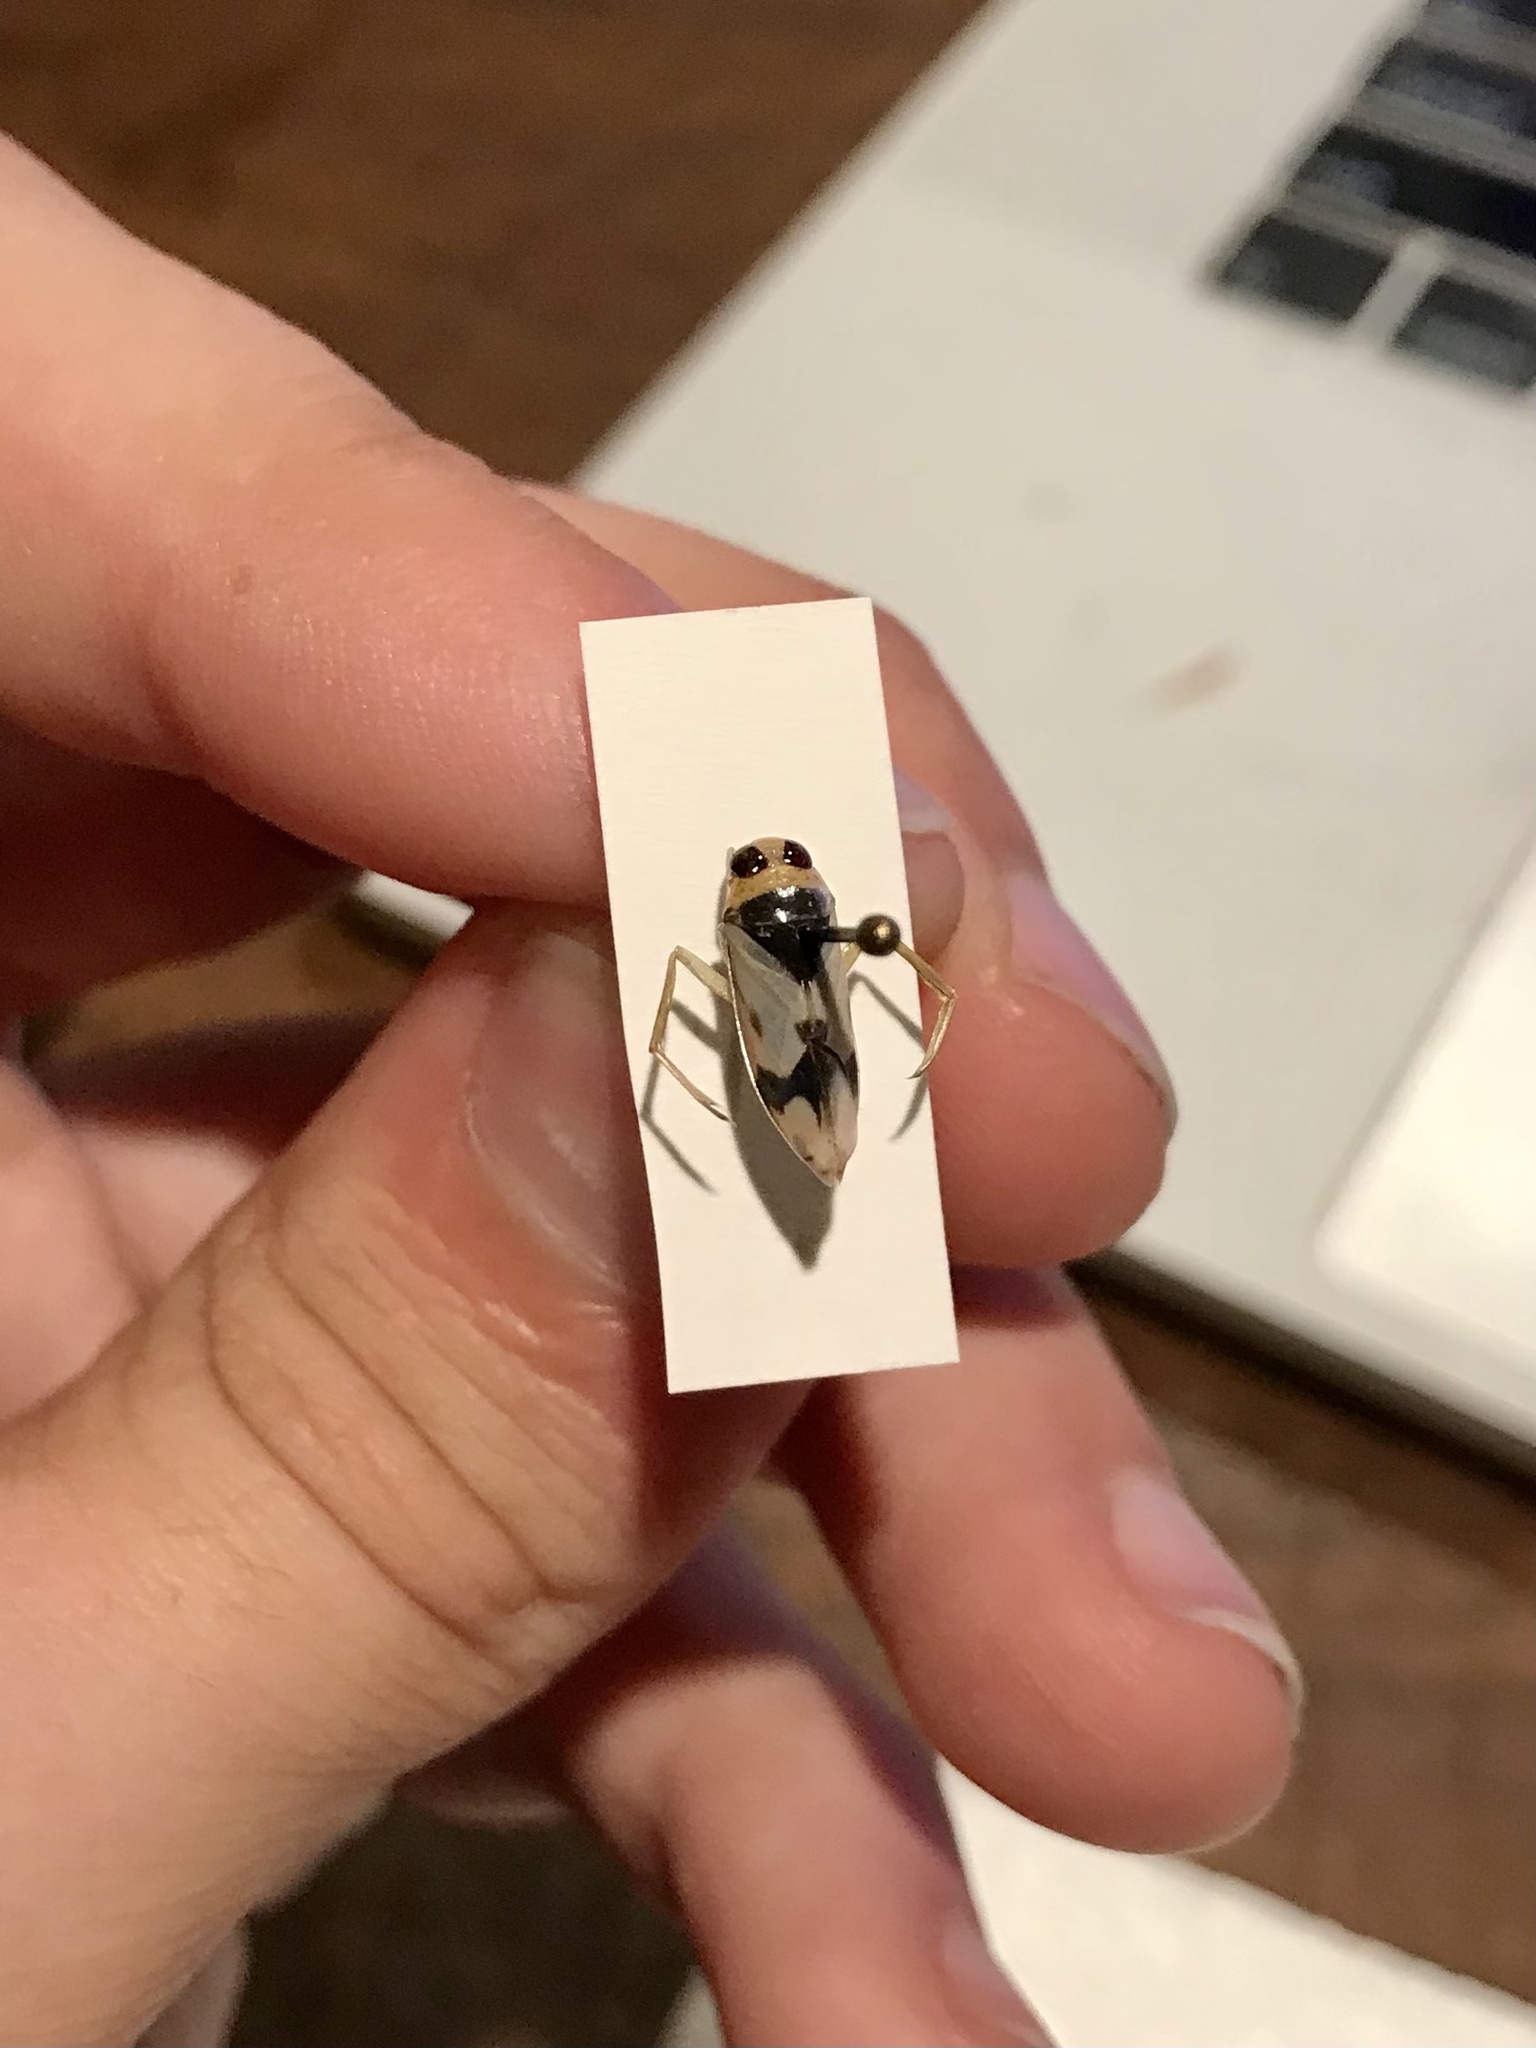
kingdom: Animalia
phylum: Arthropoda
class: Insecta
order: Hemiptera
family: Notonectidae
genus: Notonecta
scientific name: Notonecta undulata
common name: Grousewinged backswimmer
